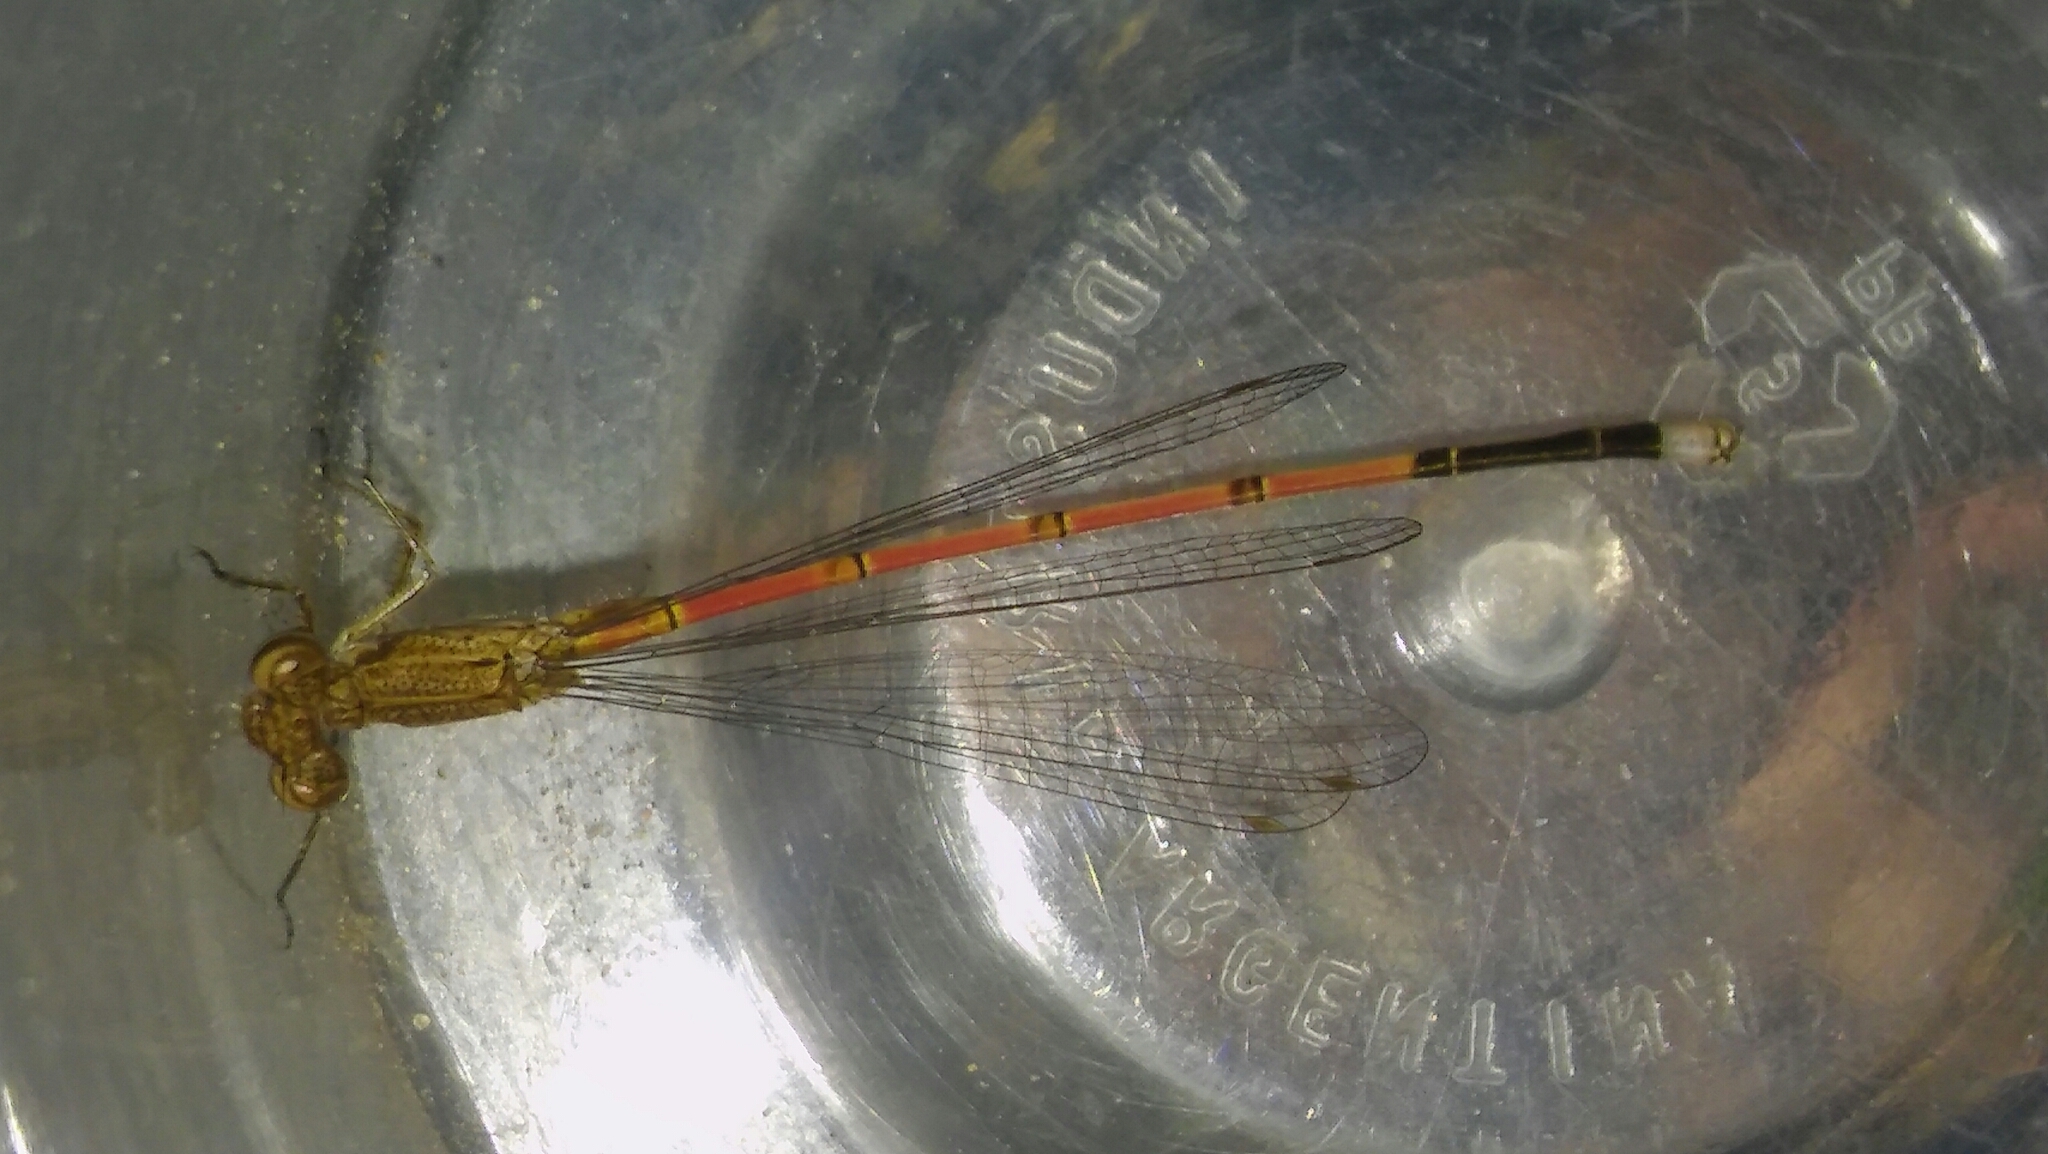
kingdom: Animalia
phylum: Arthropoda
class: Insecta
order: Odonata
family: Coenagrionidae
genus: Oxyagrion
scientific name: Oxyagrion terminale
